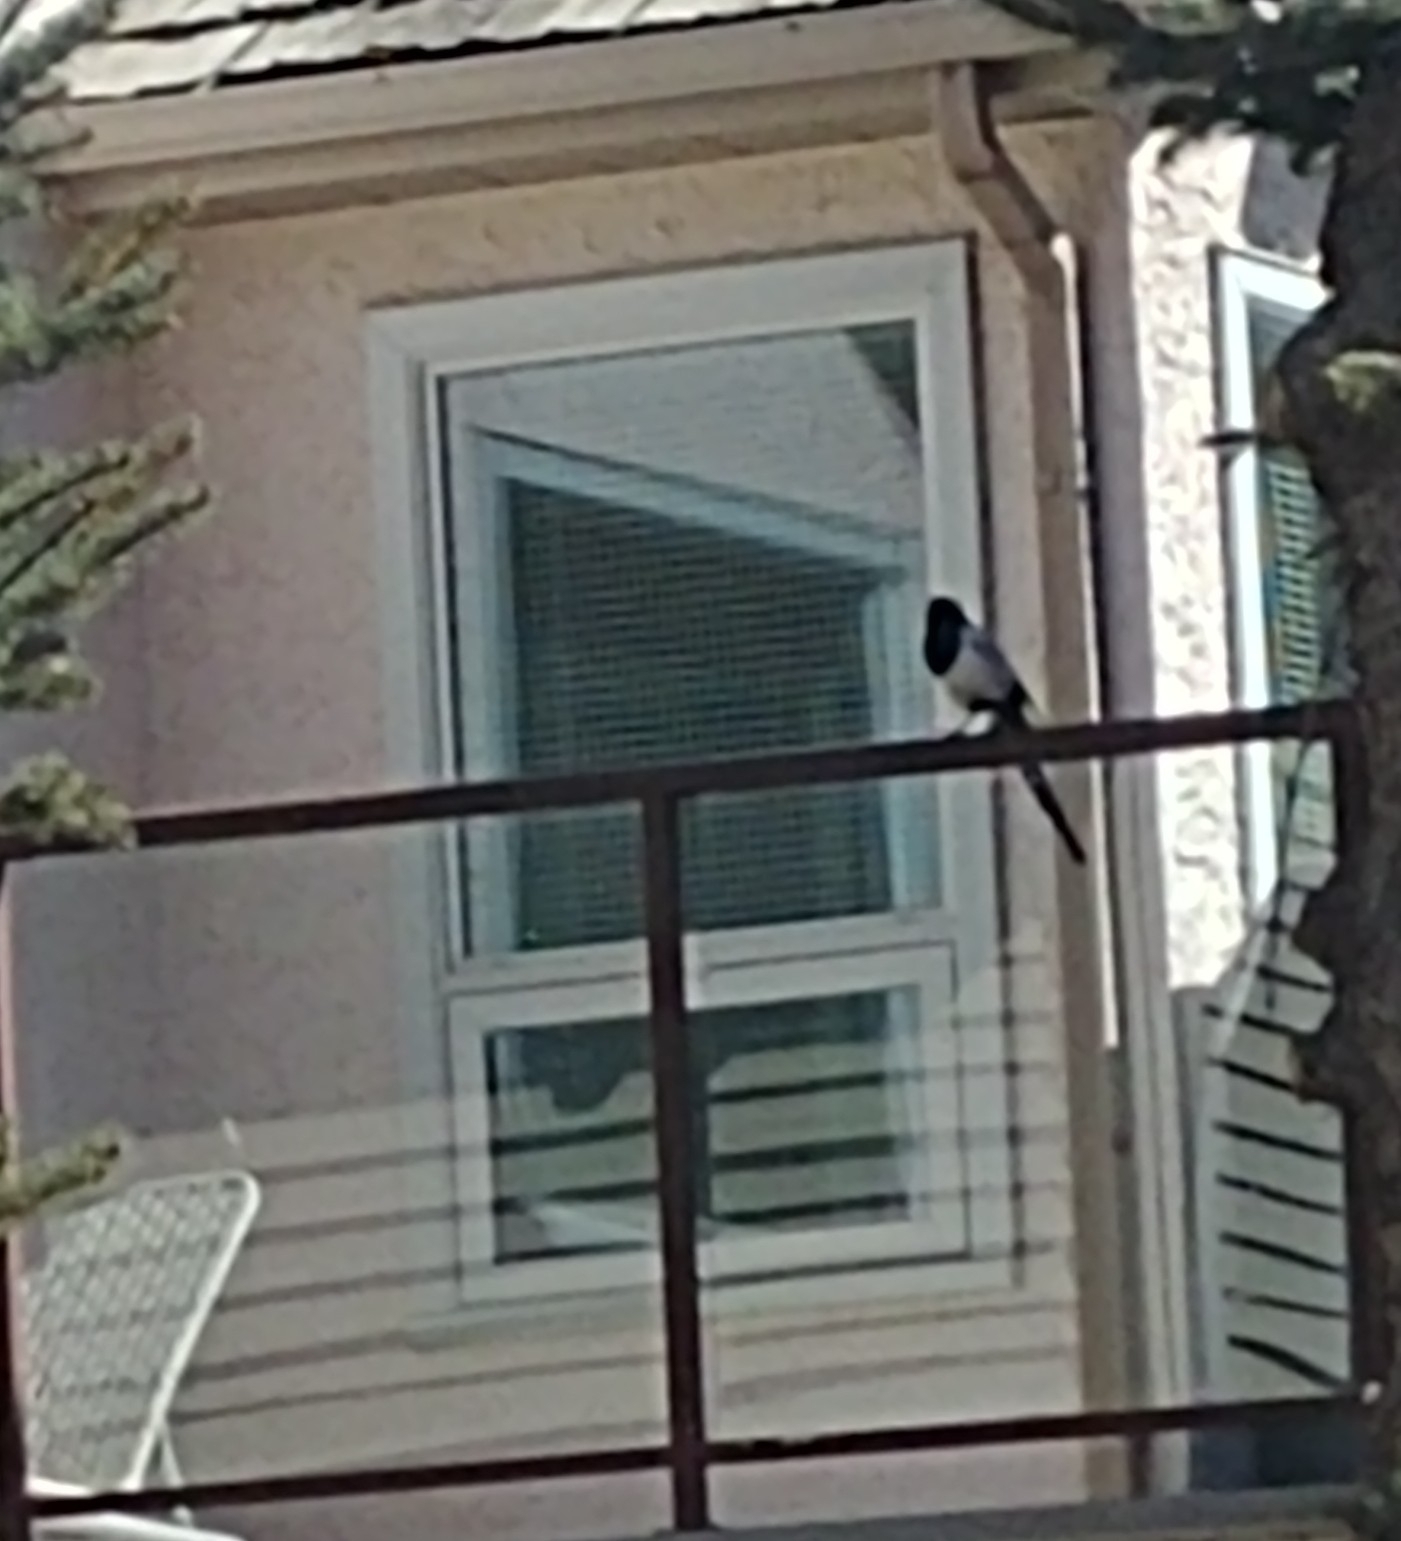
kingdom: Animalia
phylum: Chordata
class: Aves
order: Passeriformes
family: Corvidae
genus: Pica
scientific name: Pica hudsonia
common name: Black-billed magpie
